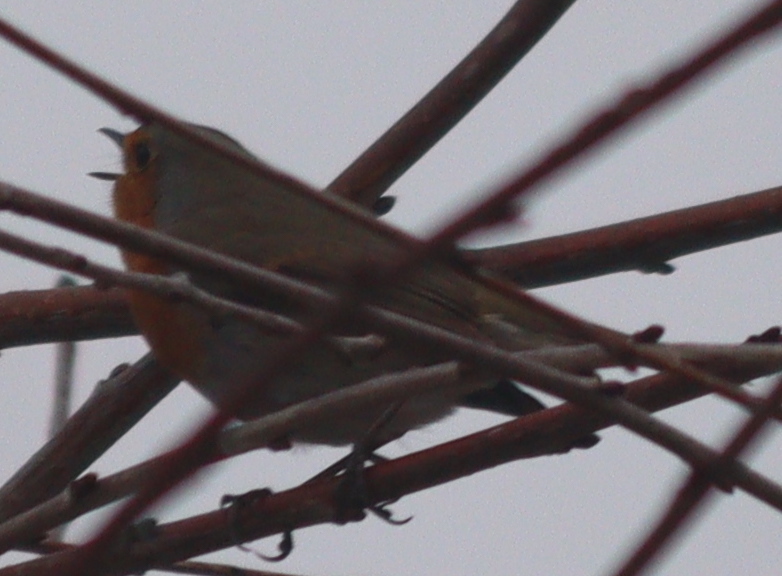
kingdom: Animalia
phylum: Chordata
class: Aves
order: Passeriformes
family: Muscicapidae
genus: Erithacus
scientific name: Erithacus rubecula
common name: European robin
